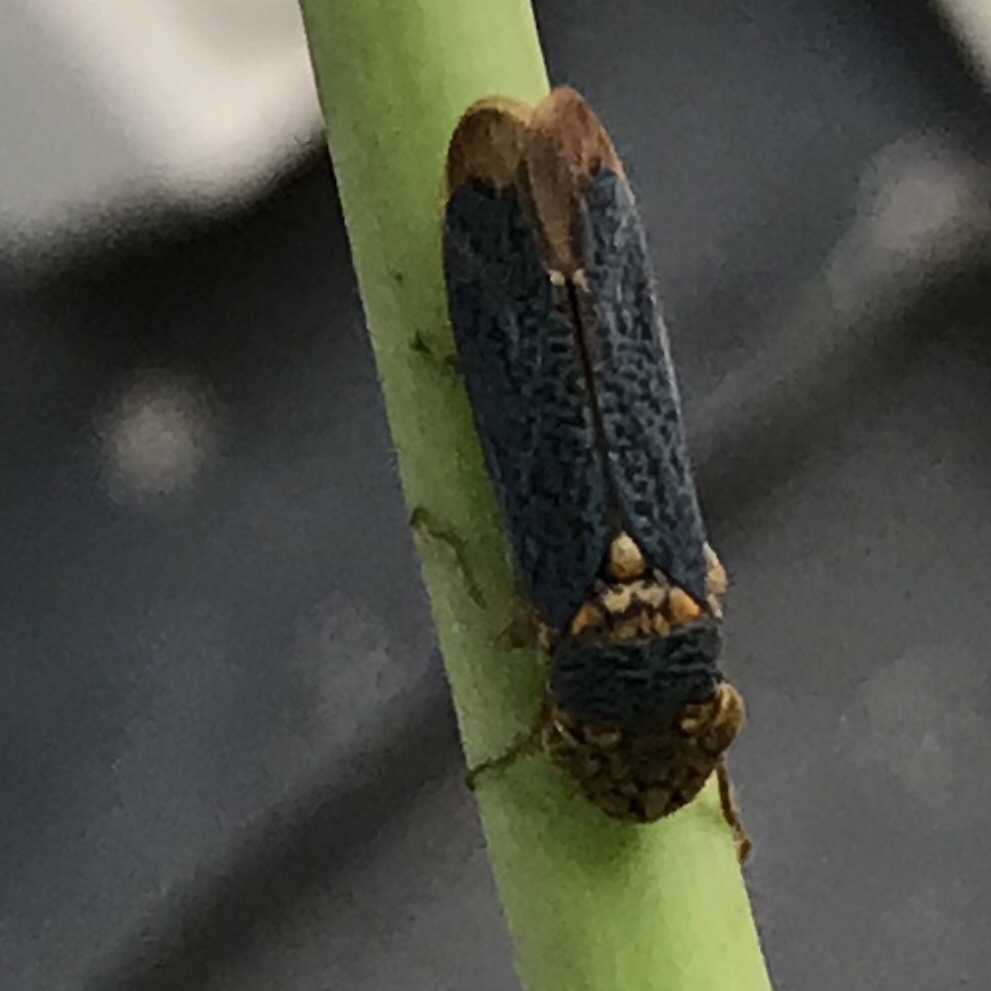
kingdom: Animalia
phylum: Arthropoda
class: Insecta
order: Hemiptera
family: Cicadellidae
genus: Oncometopia
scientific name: Oncometopia orbona
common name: Broad-headed sharpshooter
